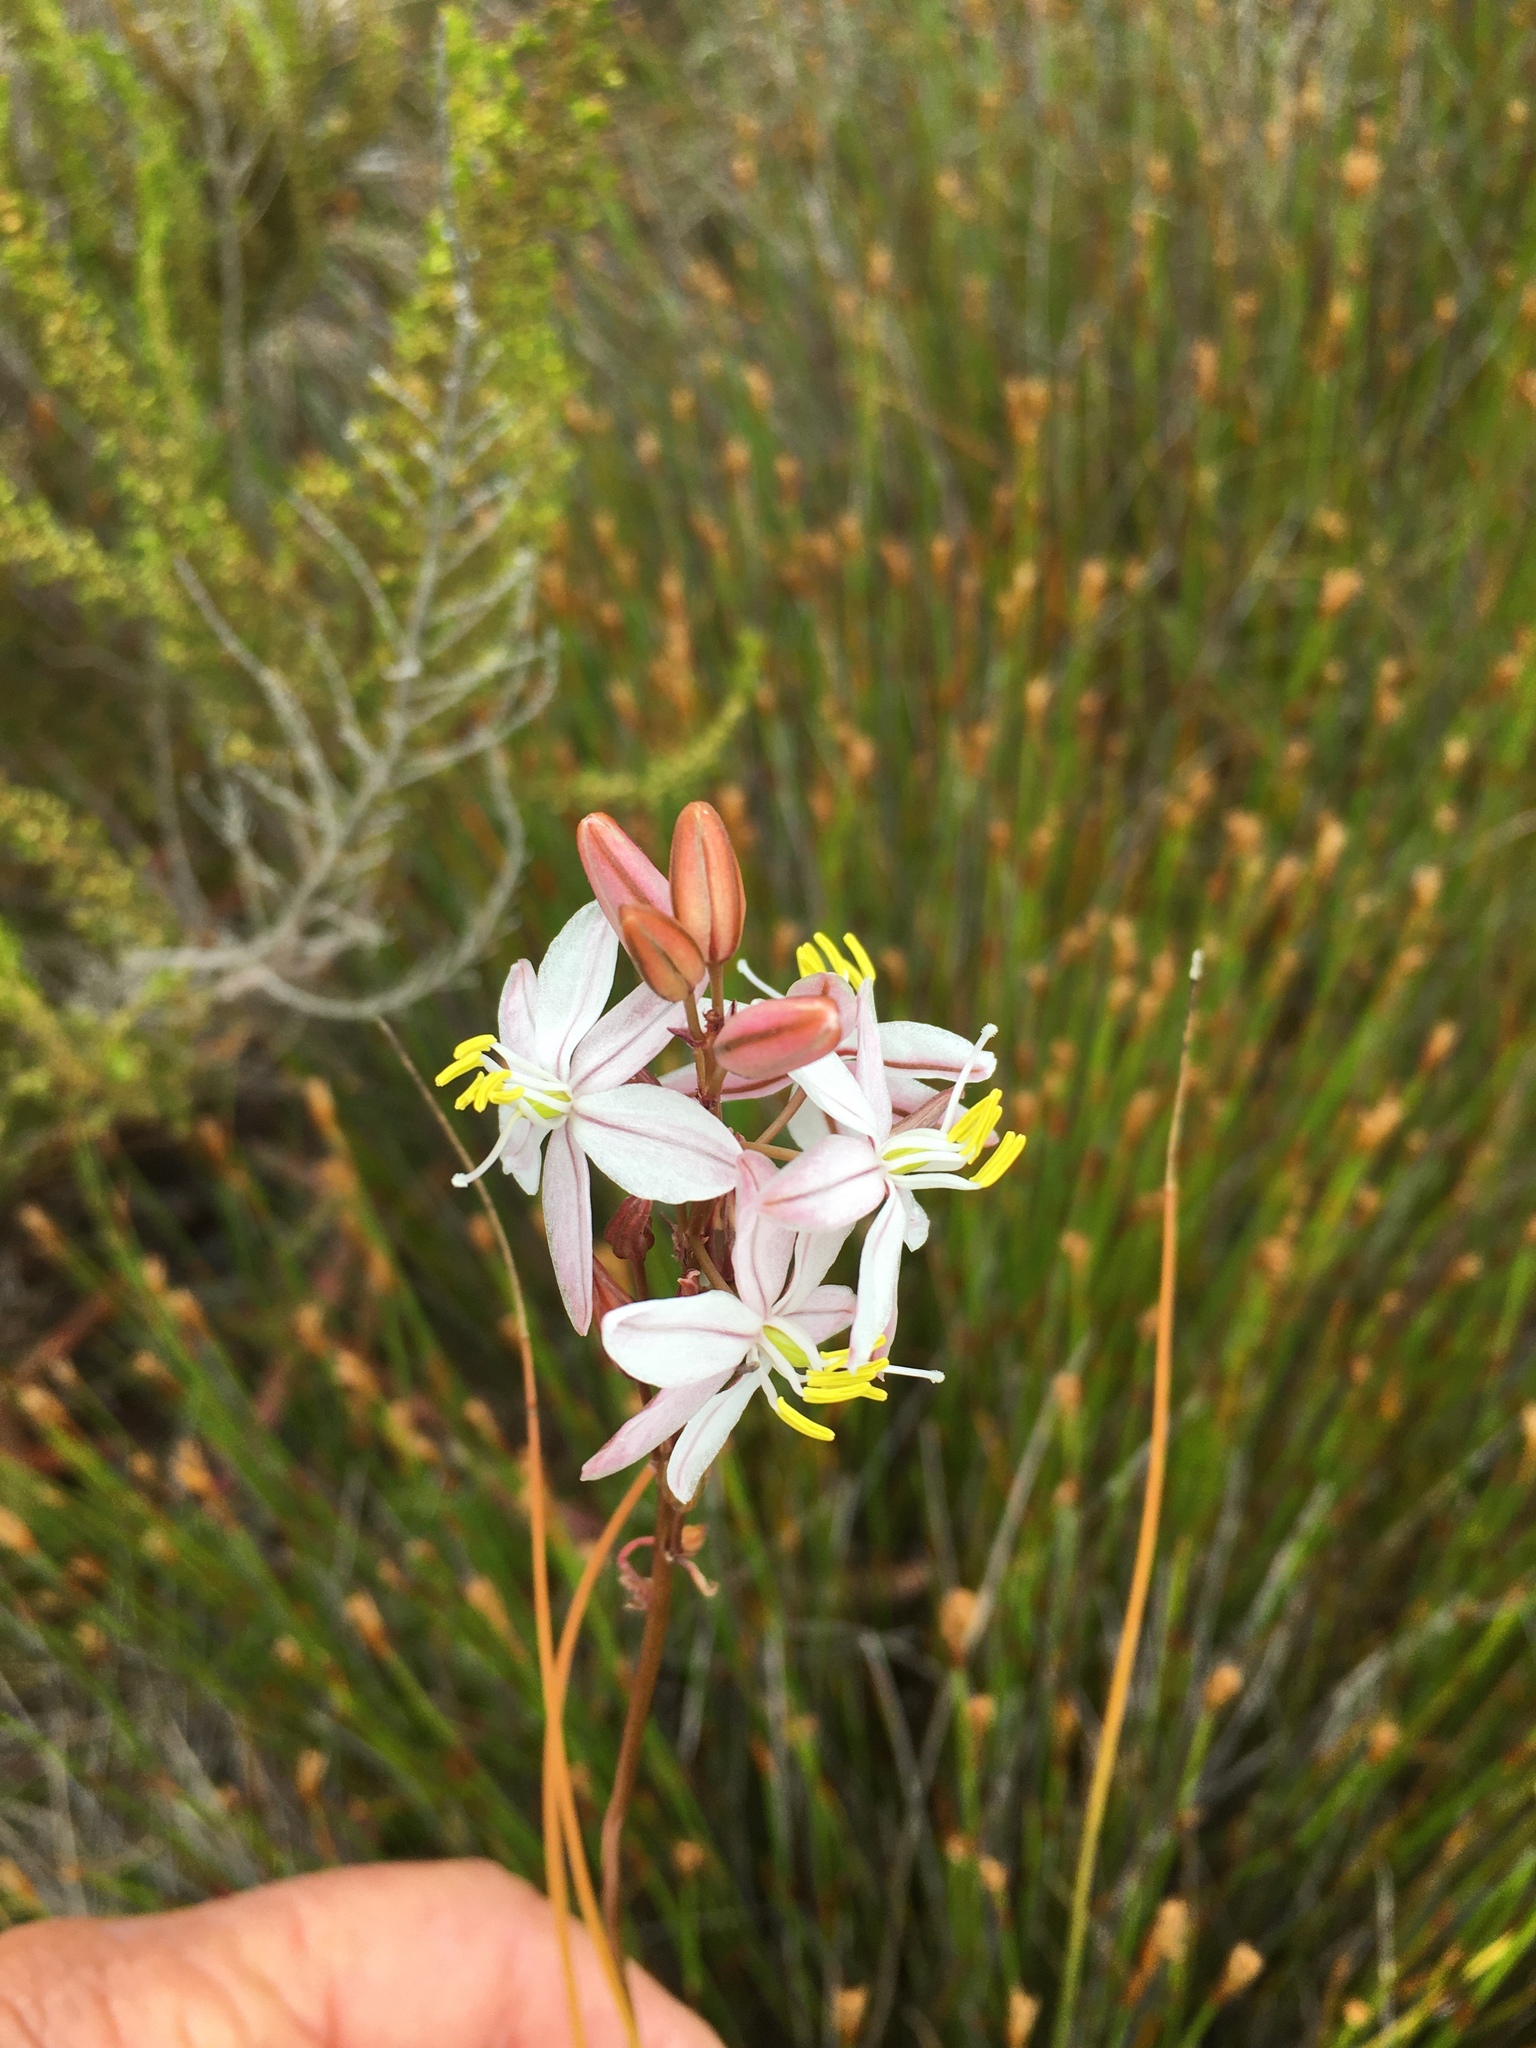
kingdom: Plantae
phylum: Tracheophyta
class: Liliopsida
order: Asparagales
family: Asparagaceae
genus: Drimia
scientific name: Drimia exuviata
